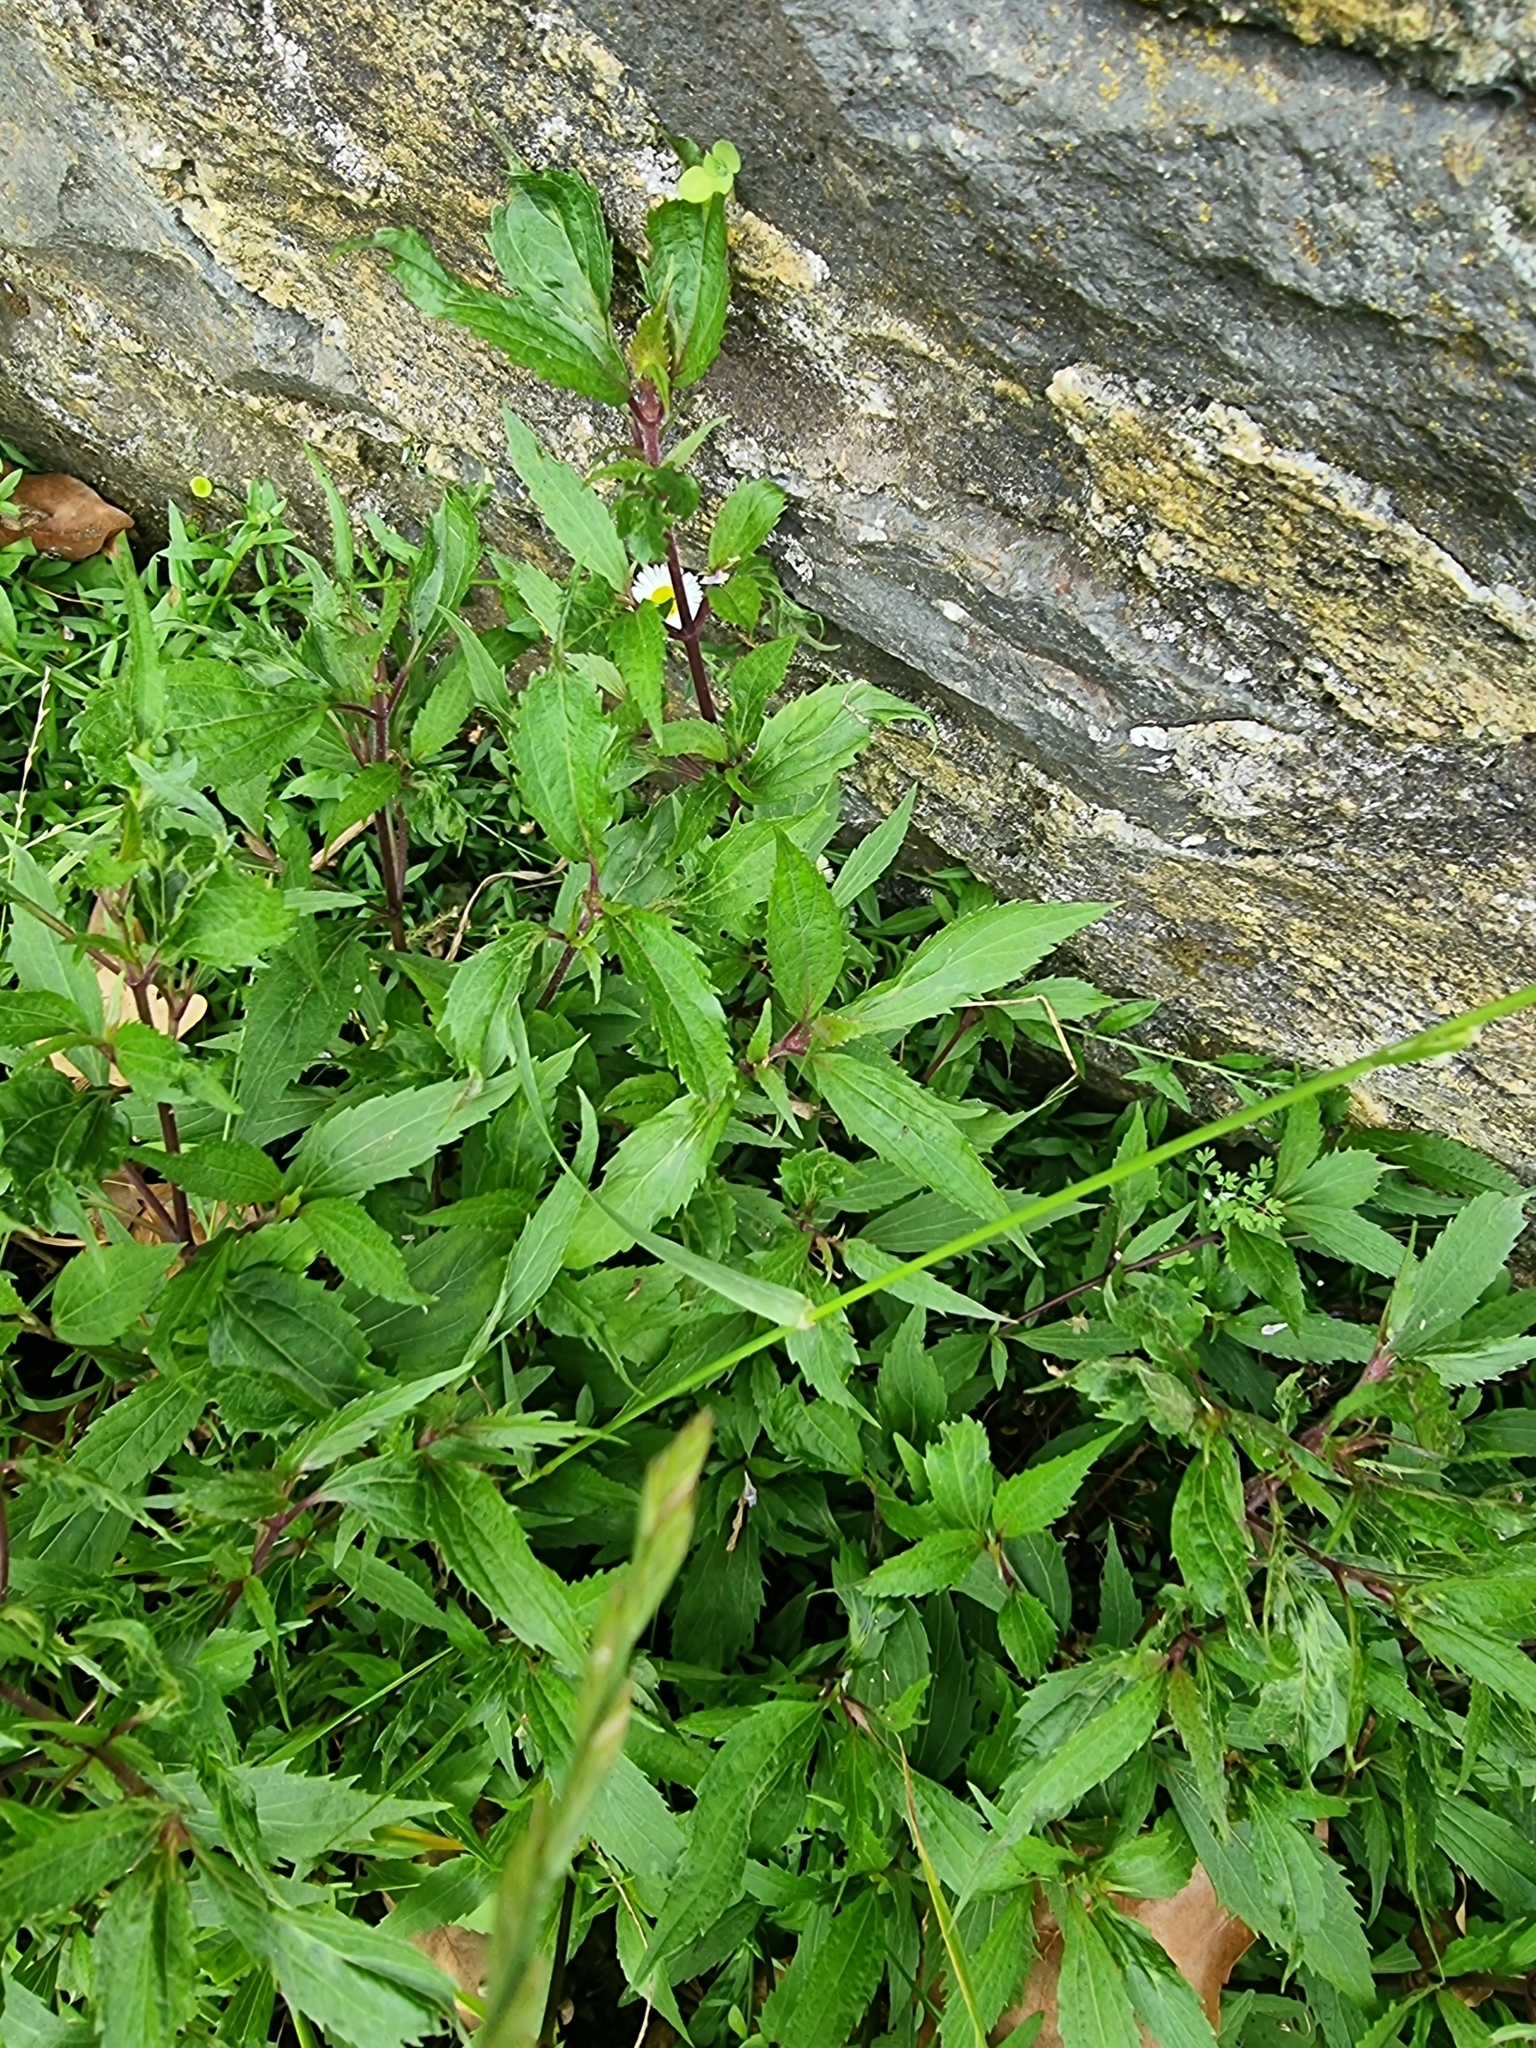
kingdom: Plantae
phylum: Tracheophyta
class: Magnoliopsida
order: Asterales
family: Asteraceae
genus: Ageratina
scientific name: Ageratina riparia
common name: Creeping croftonweed
